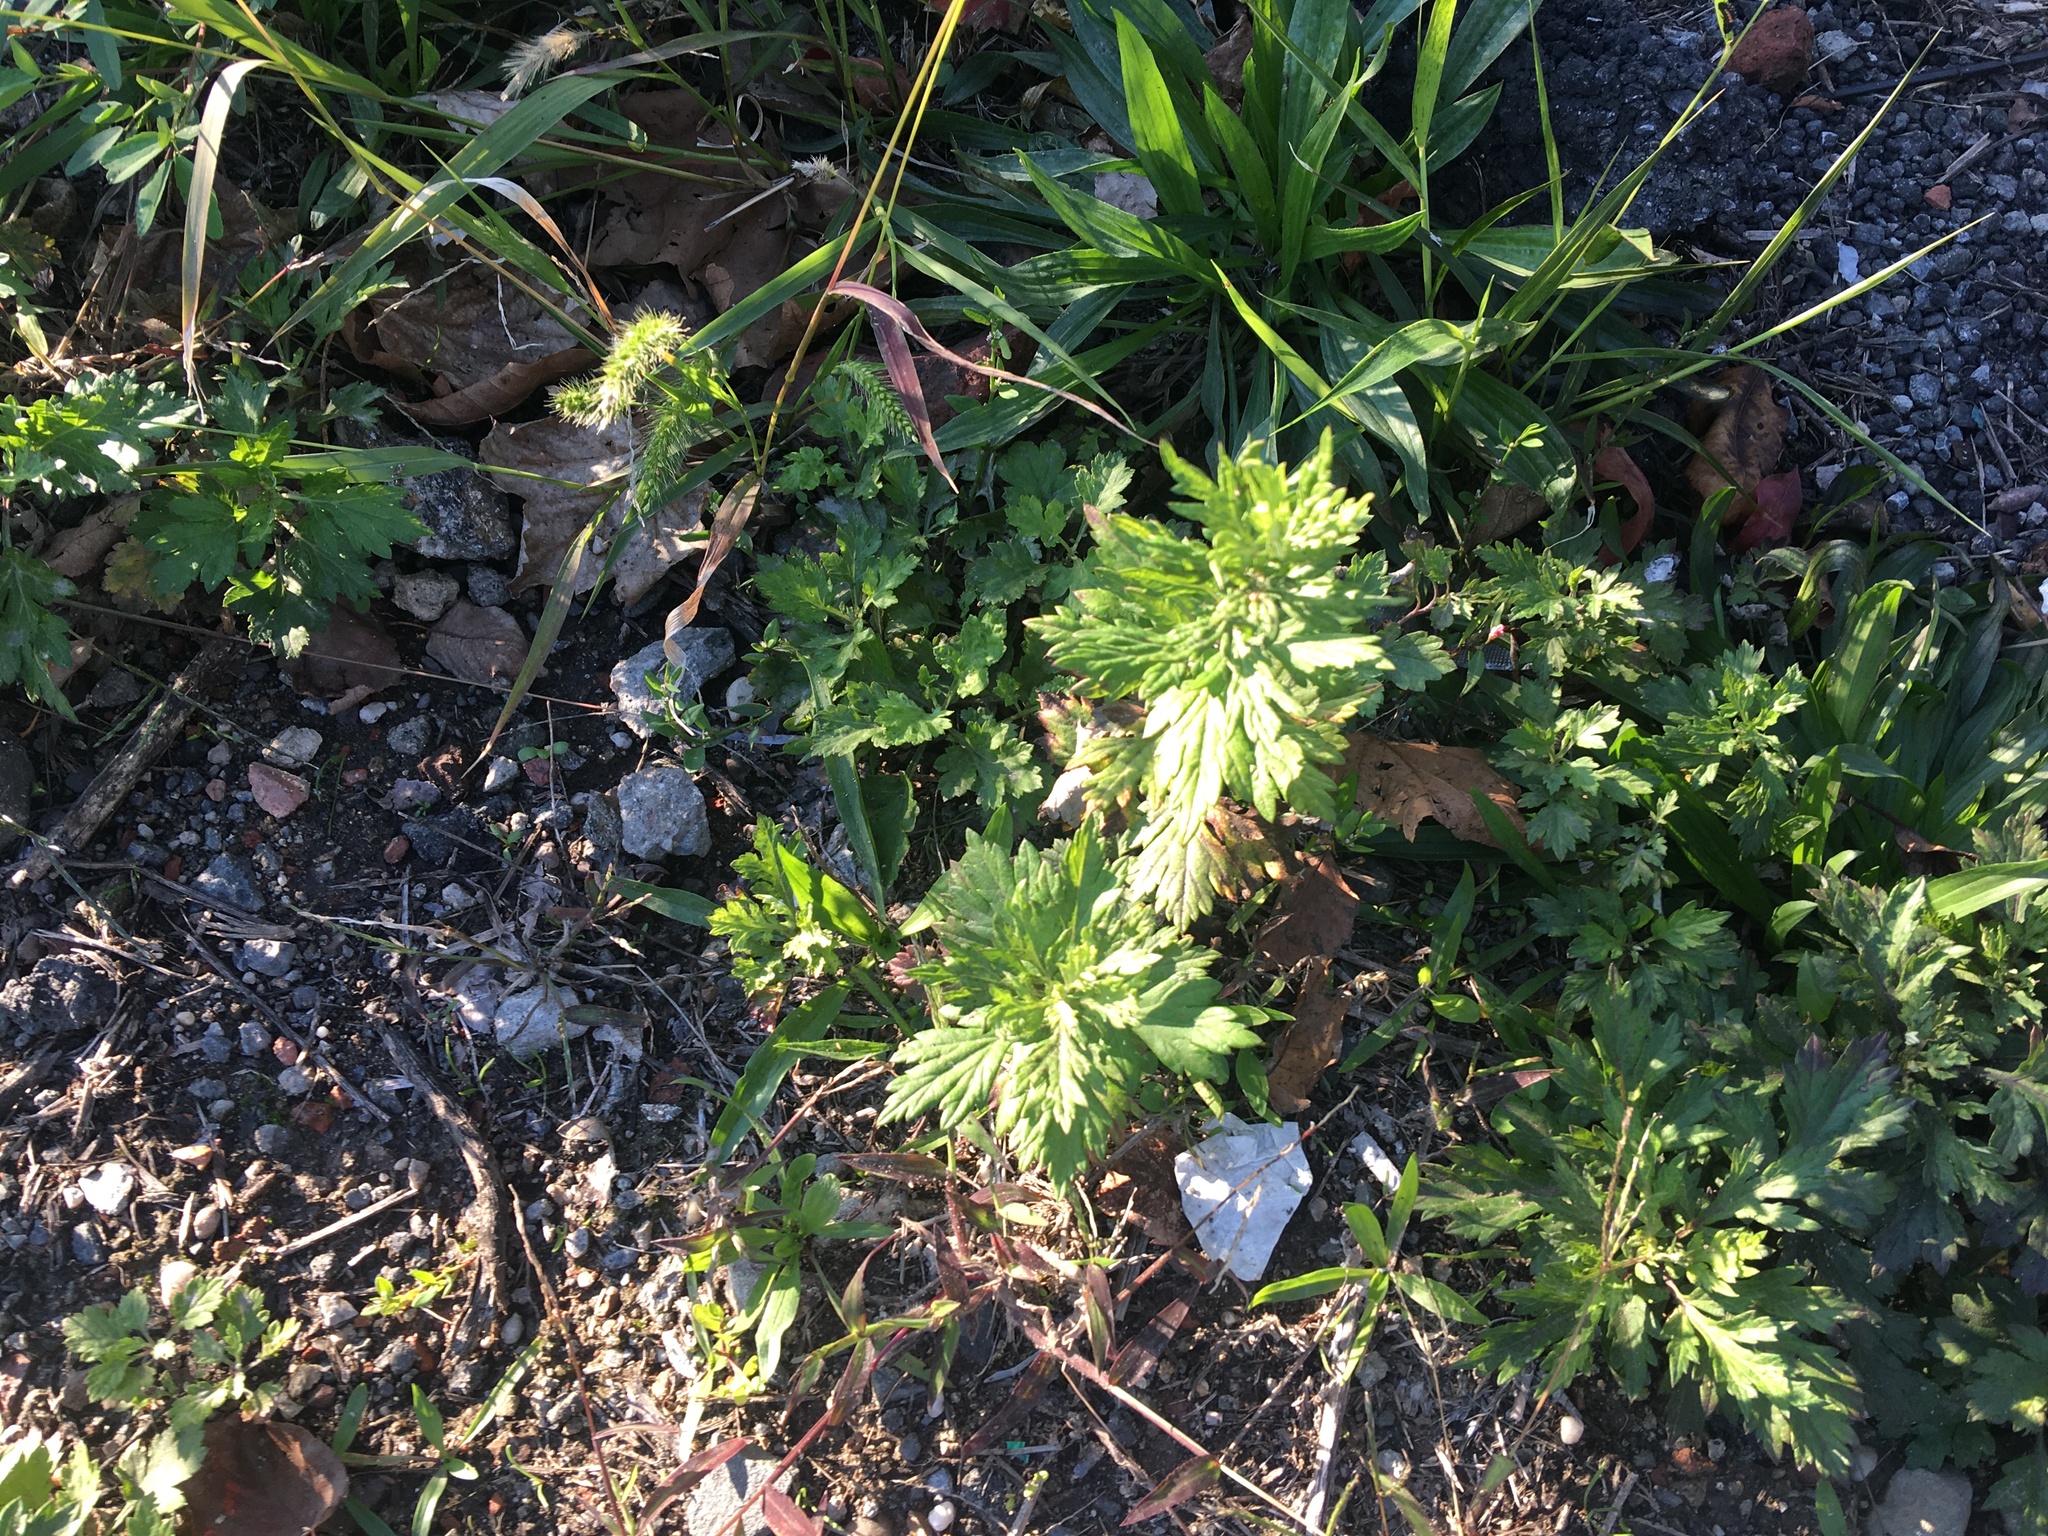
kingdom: Plantae
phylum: Tracheophyta
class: Magnoliopsida
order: Asterales
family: Asteraceae
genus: Artemisia
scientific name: Artemisia vulgaris
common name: Mugwort
